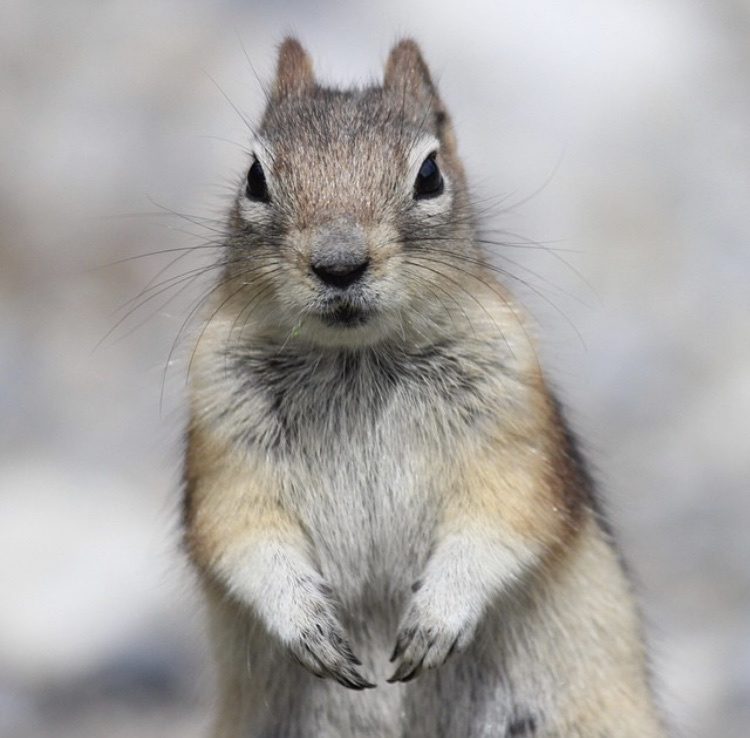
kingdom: Animalia
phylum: Chordata
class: Mammalia
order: Rodentia
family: Sciuridae
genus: Callospermophilus
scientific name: Callospermophilus lateralis
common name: Golden-mantled ground squirrel
